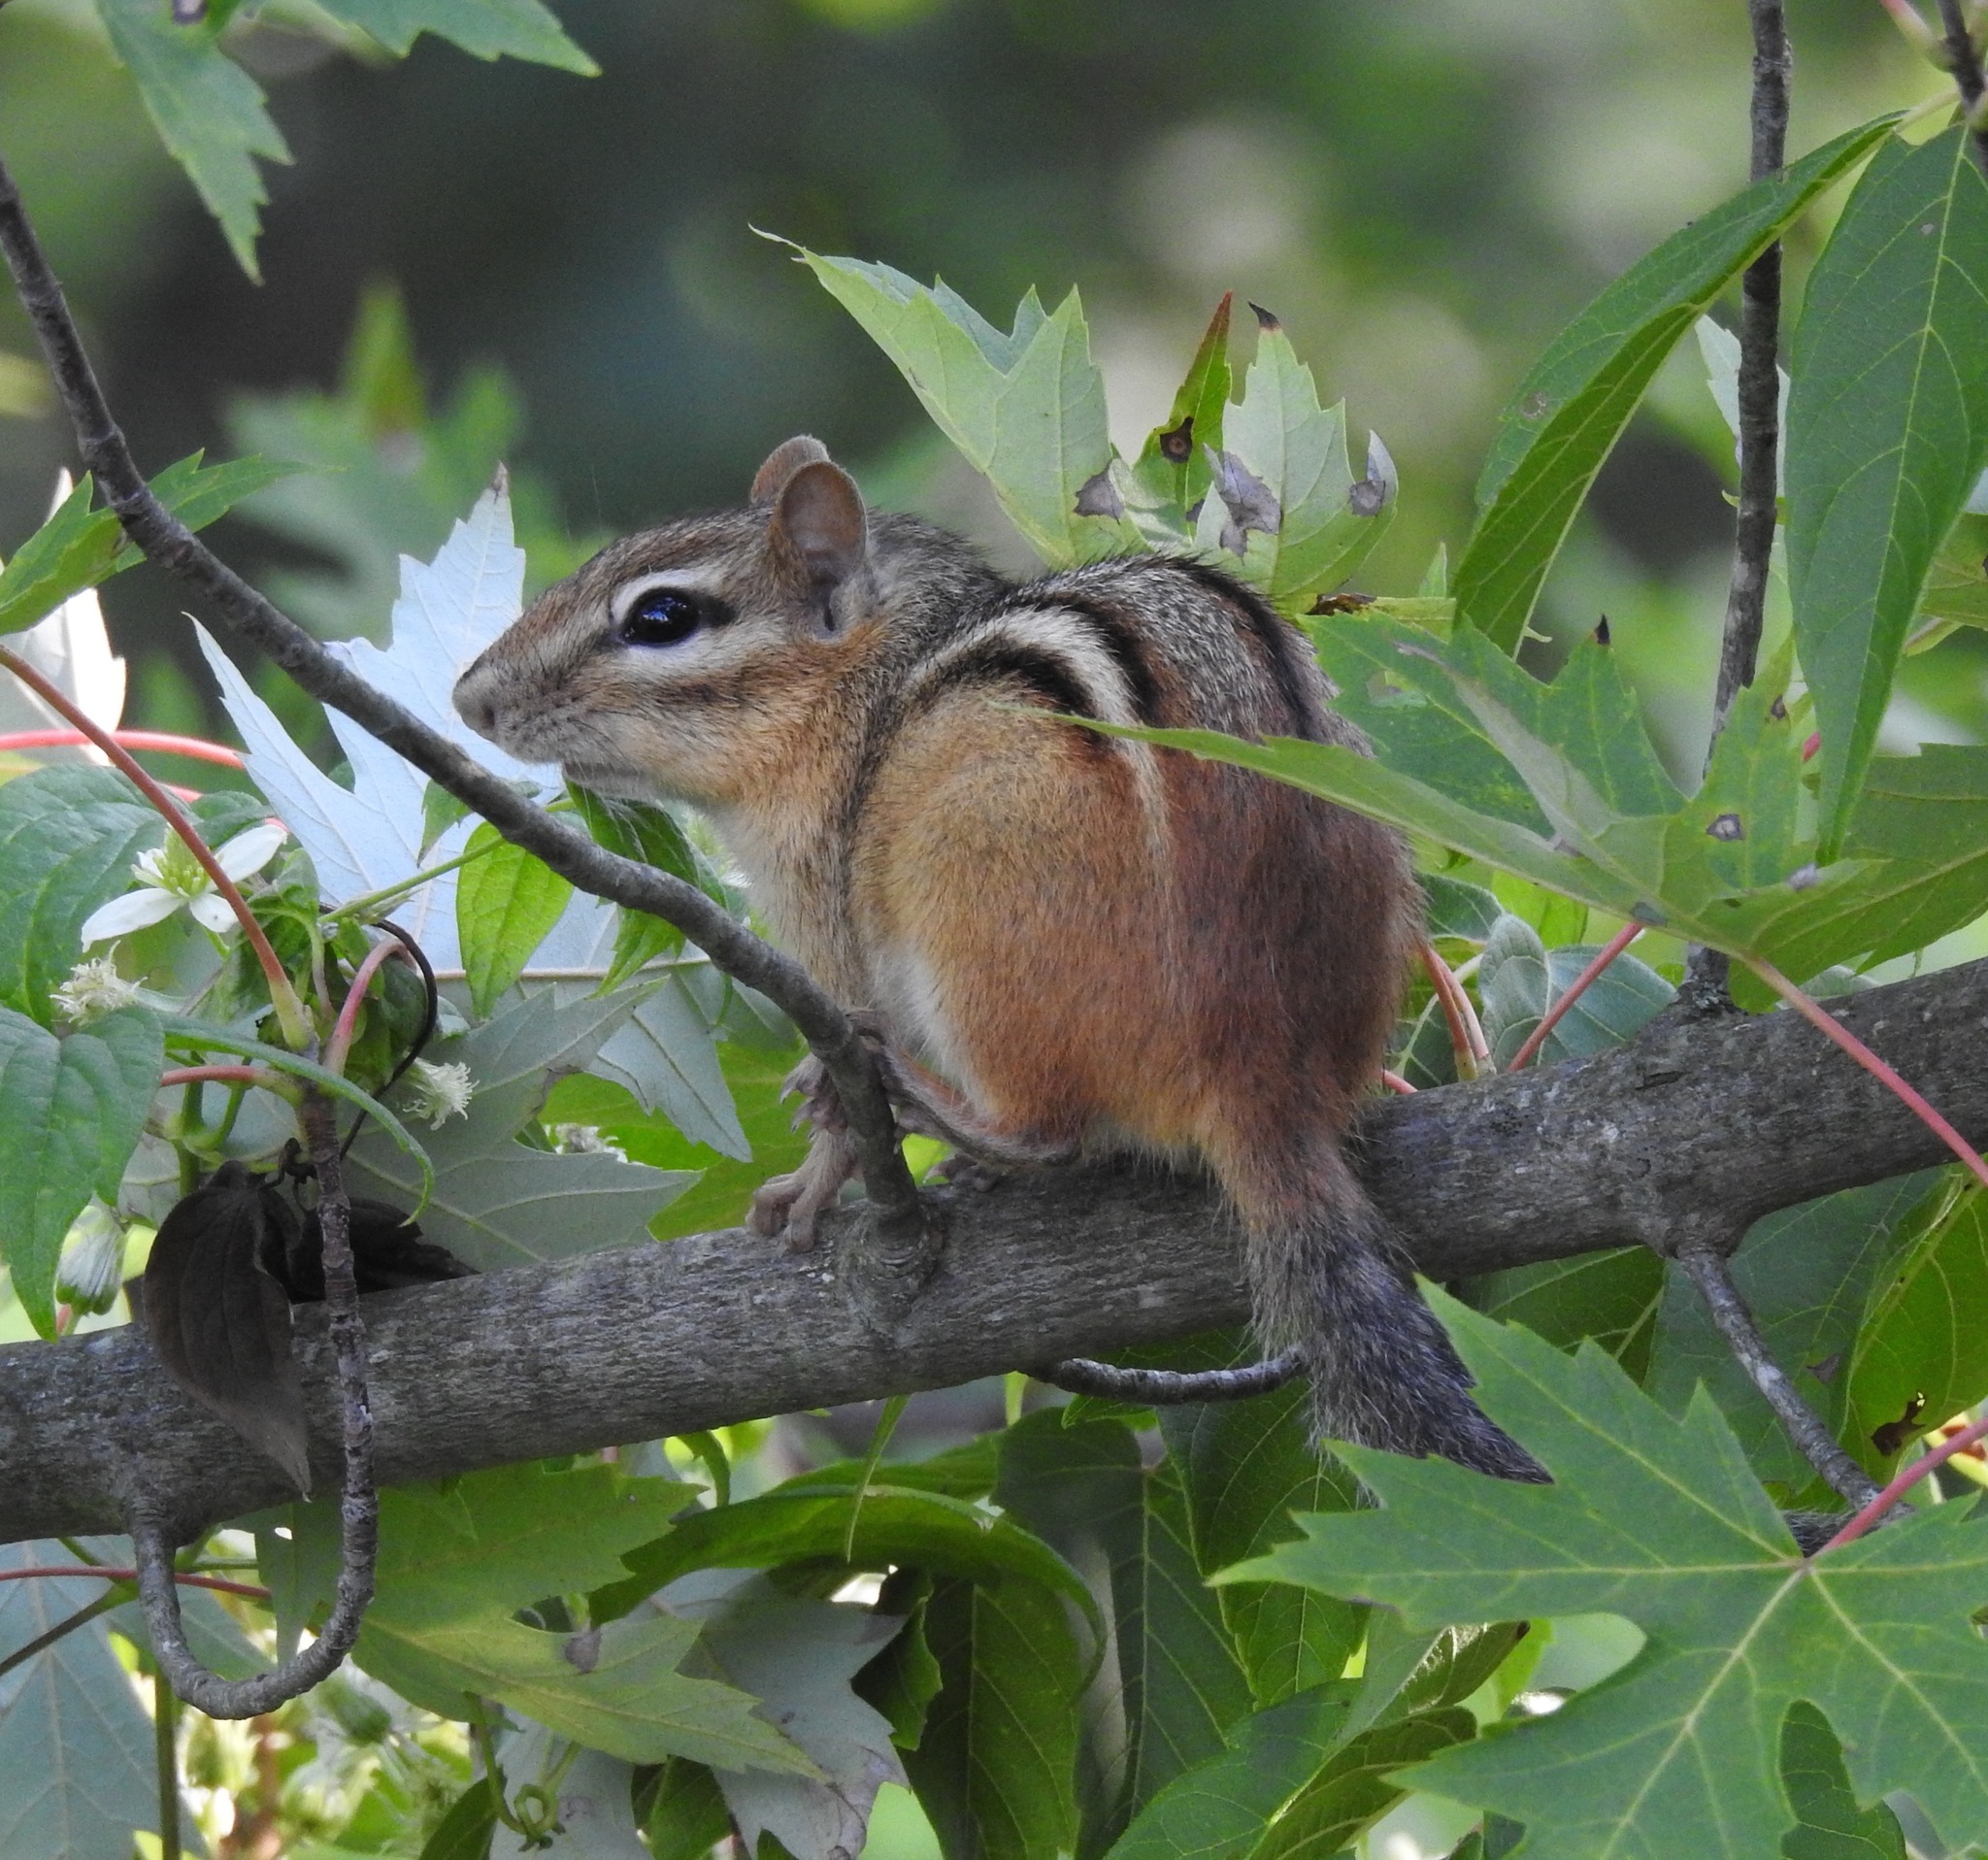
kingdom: Animalia
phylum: Chordata
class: Mammalia
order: Rodentia
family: Sciuridae
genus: Tamias
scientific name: Tamias striatus
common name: Eastern chipmunk
